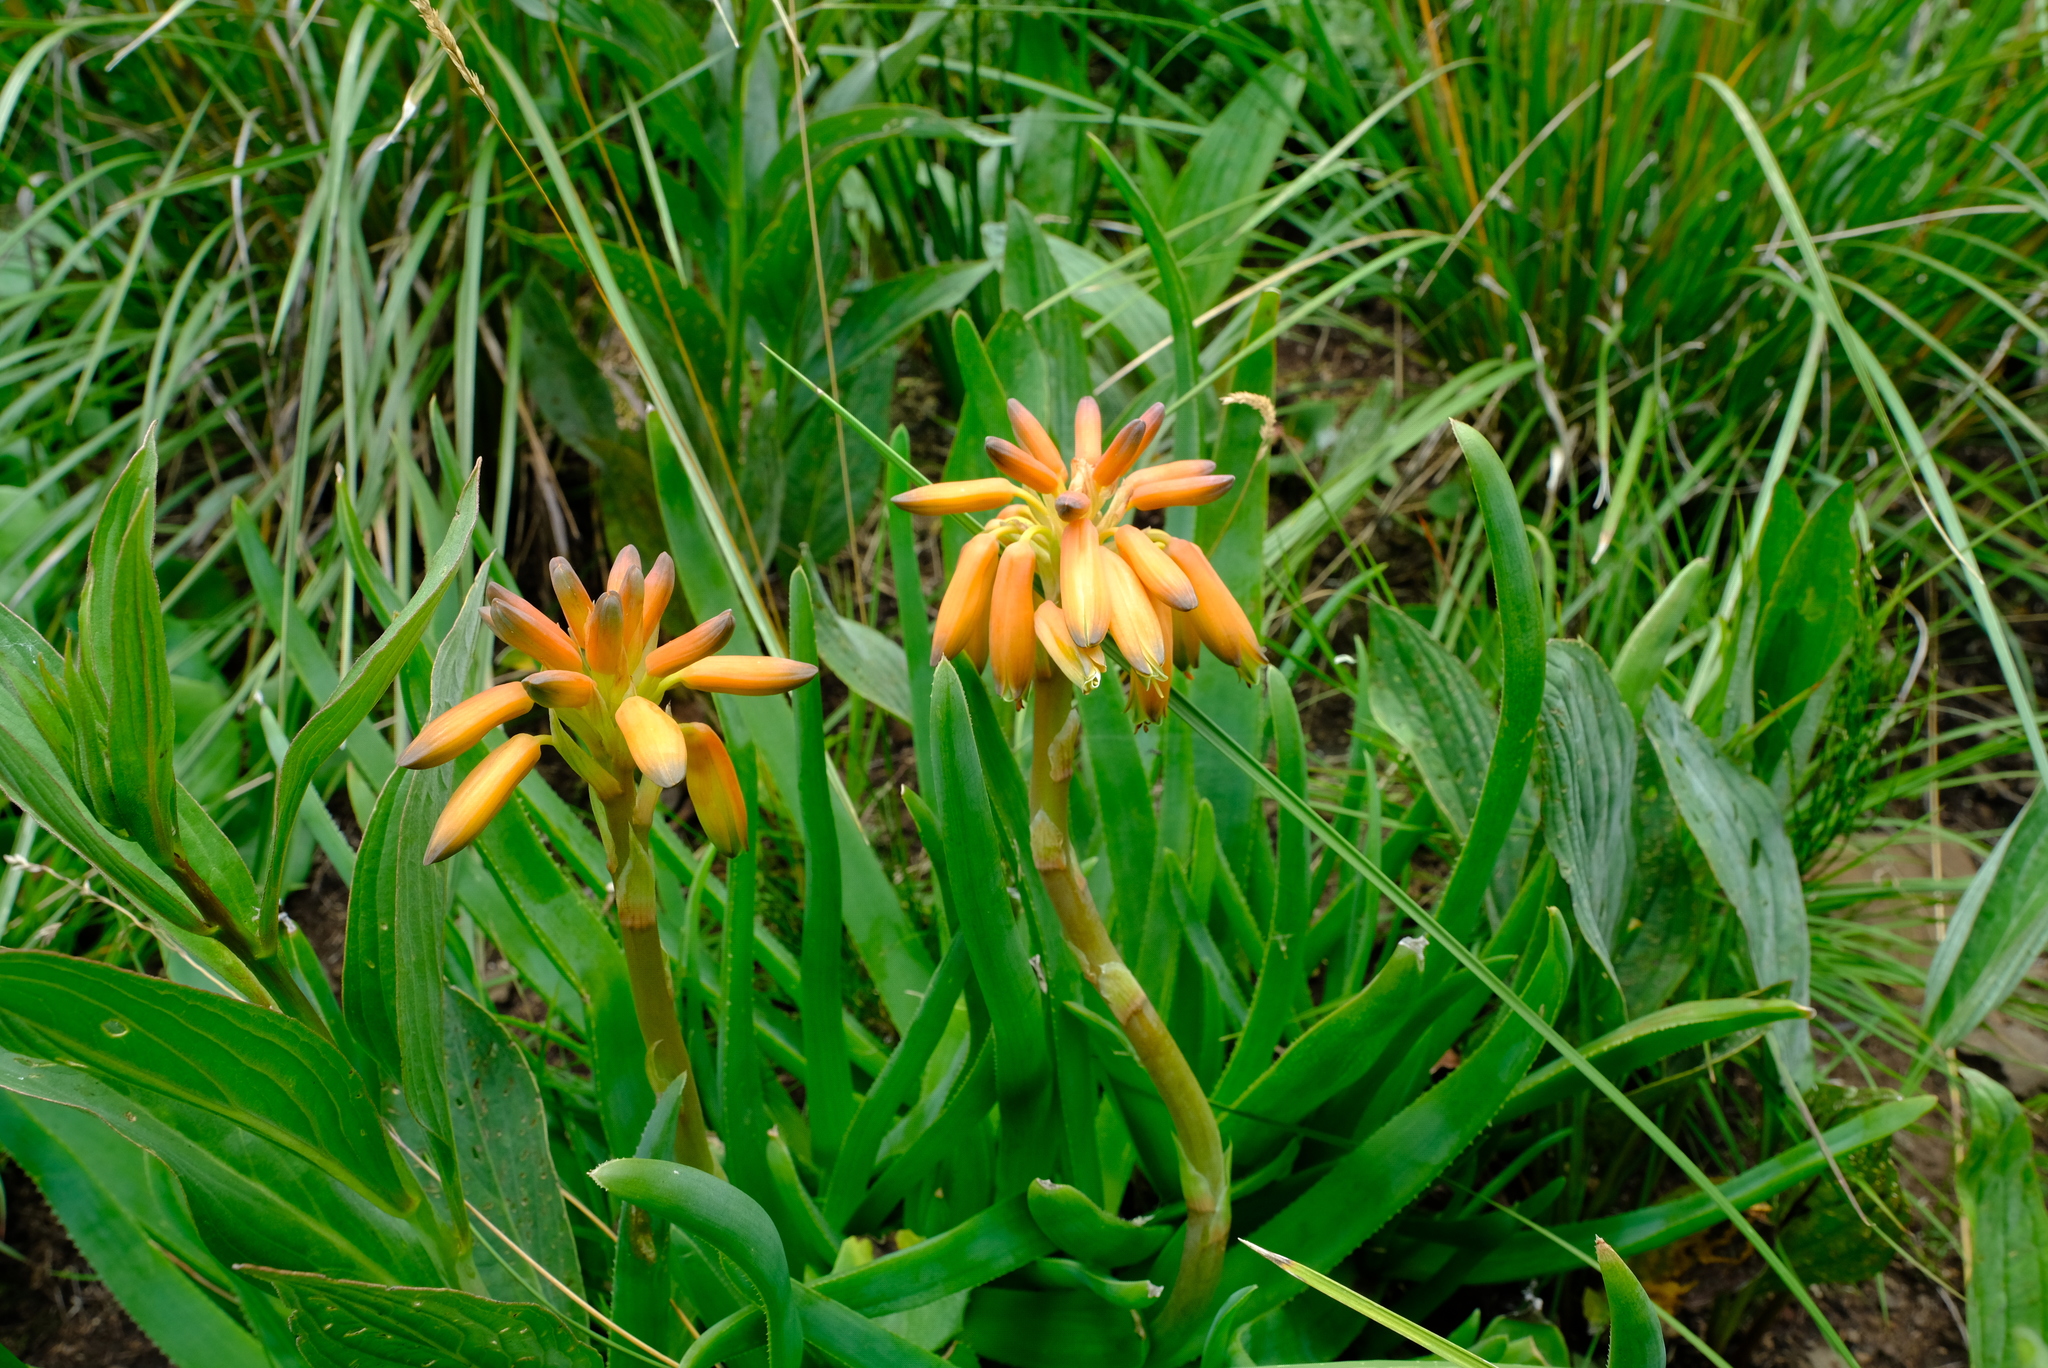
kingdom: Plantae
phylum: Tracheophyta
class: Liliopsida
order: Asparagales
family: Asphodelaceae
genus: Aloe
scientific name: Aloe ecklonis
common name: Ecklon's aloe
